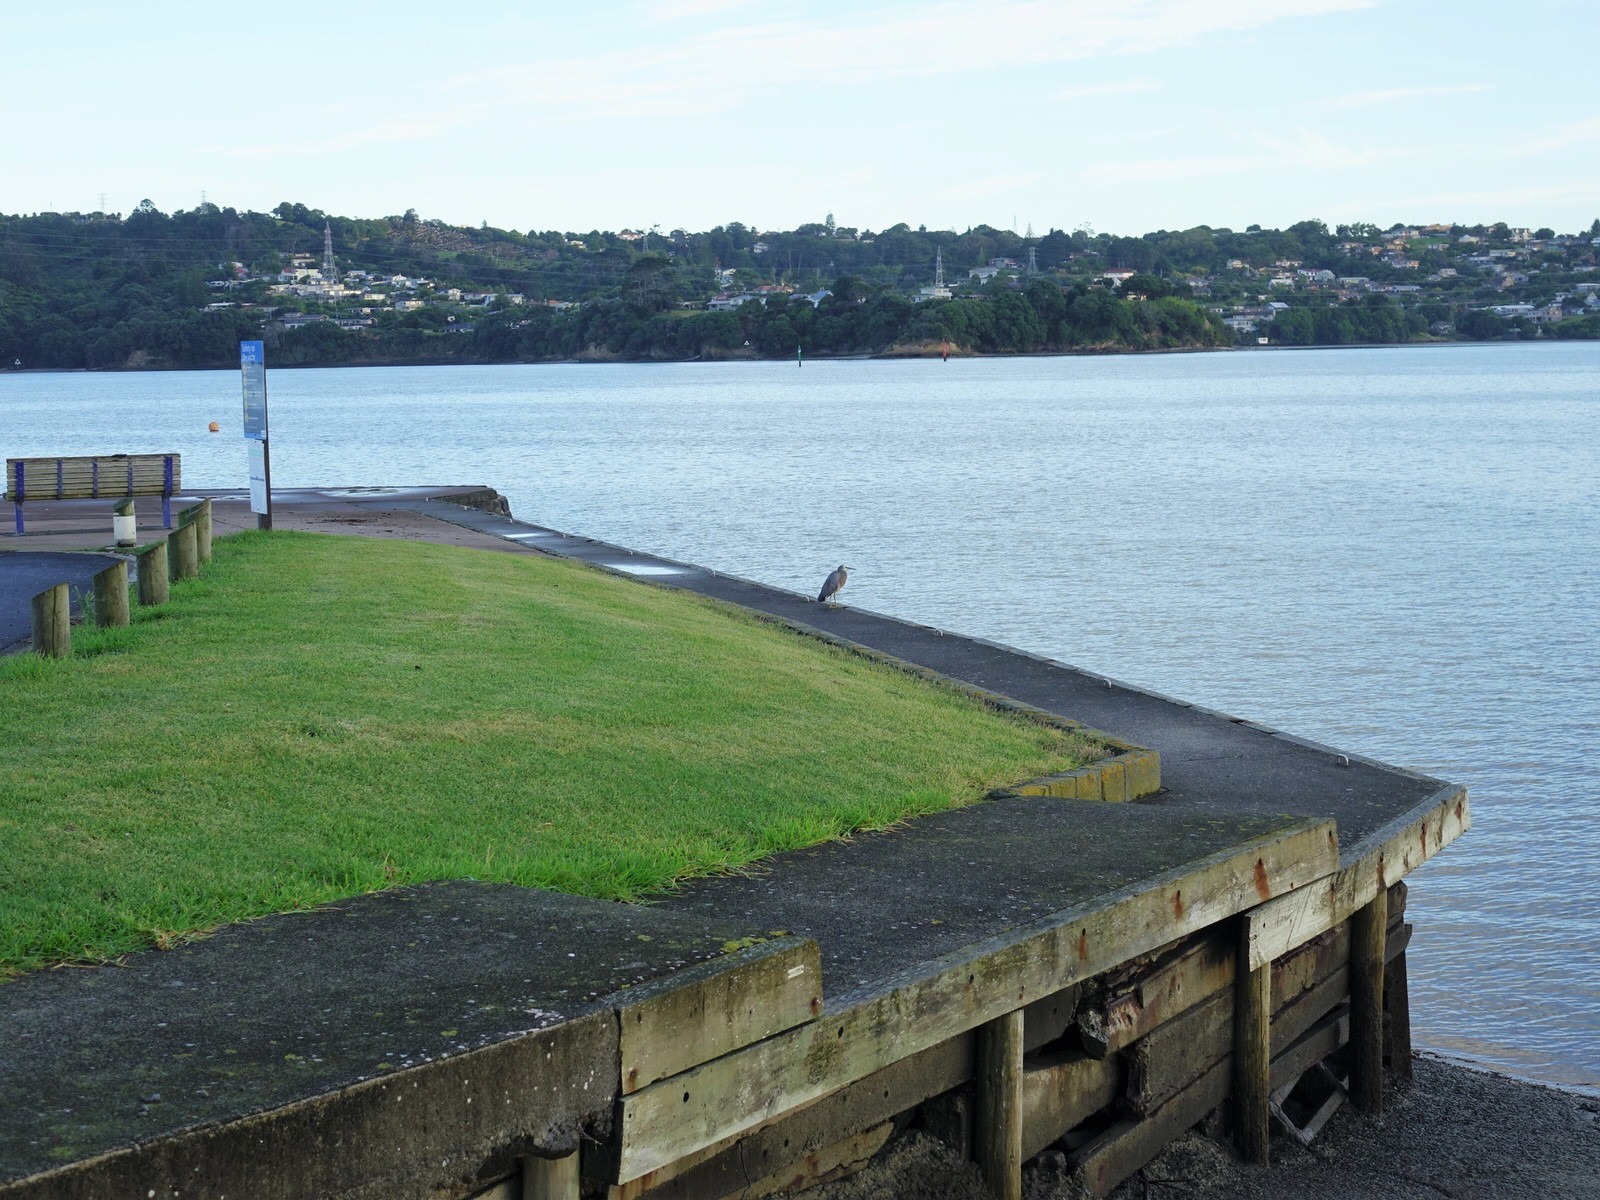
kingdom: Animalia
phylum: Chordata
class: Aves
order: Pelecaniformes
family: Ardeidae
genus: Egretta
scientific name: Egretta novaehollandiae
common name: White-faced heron
